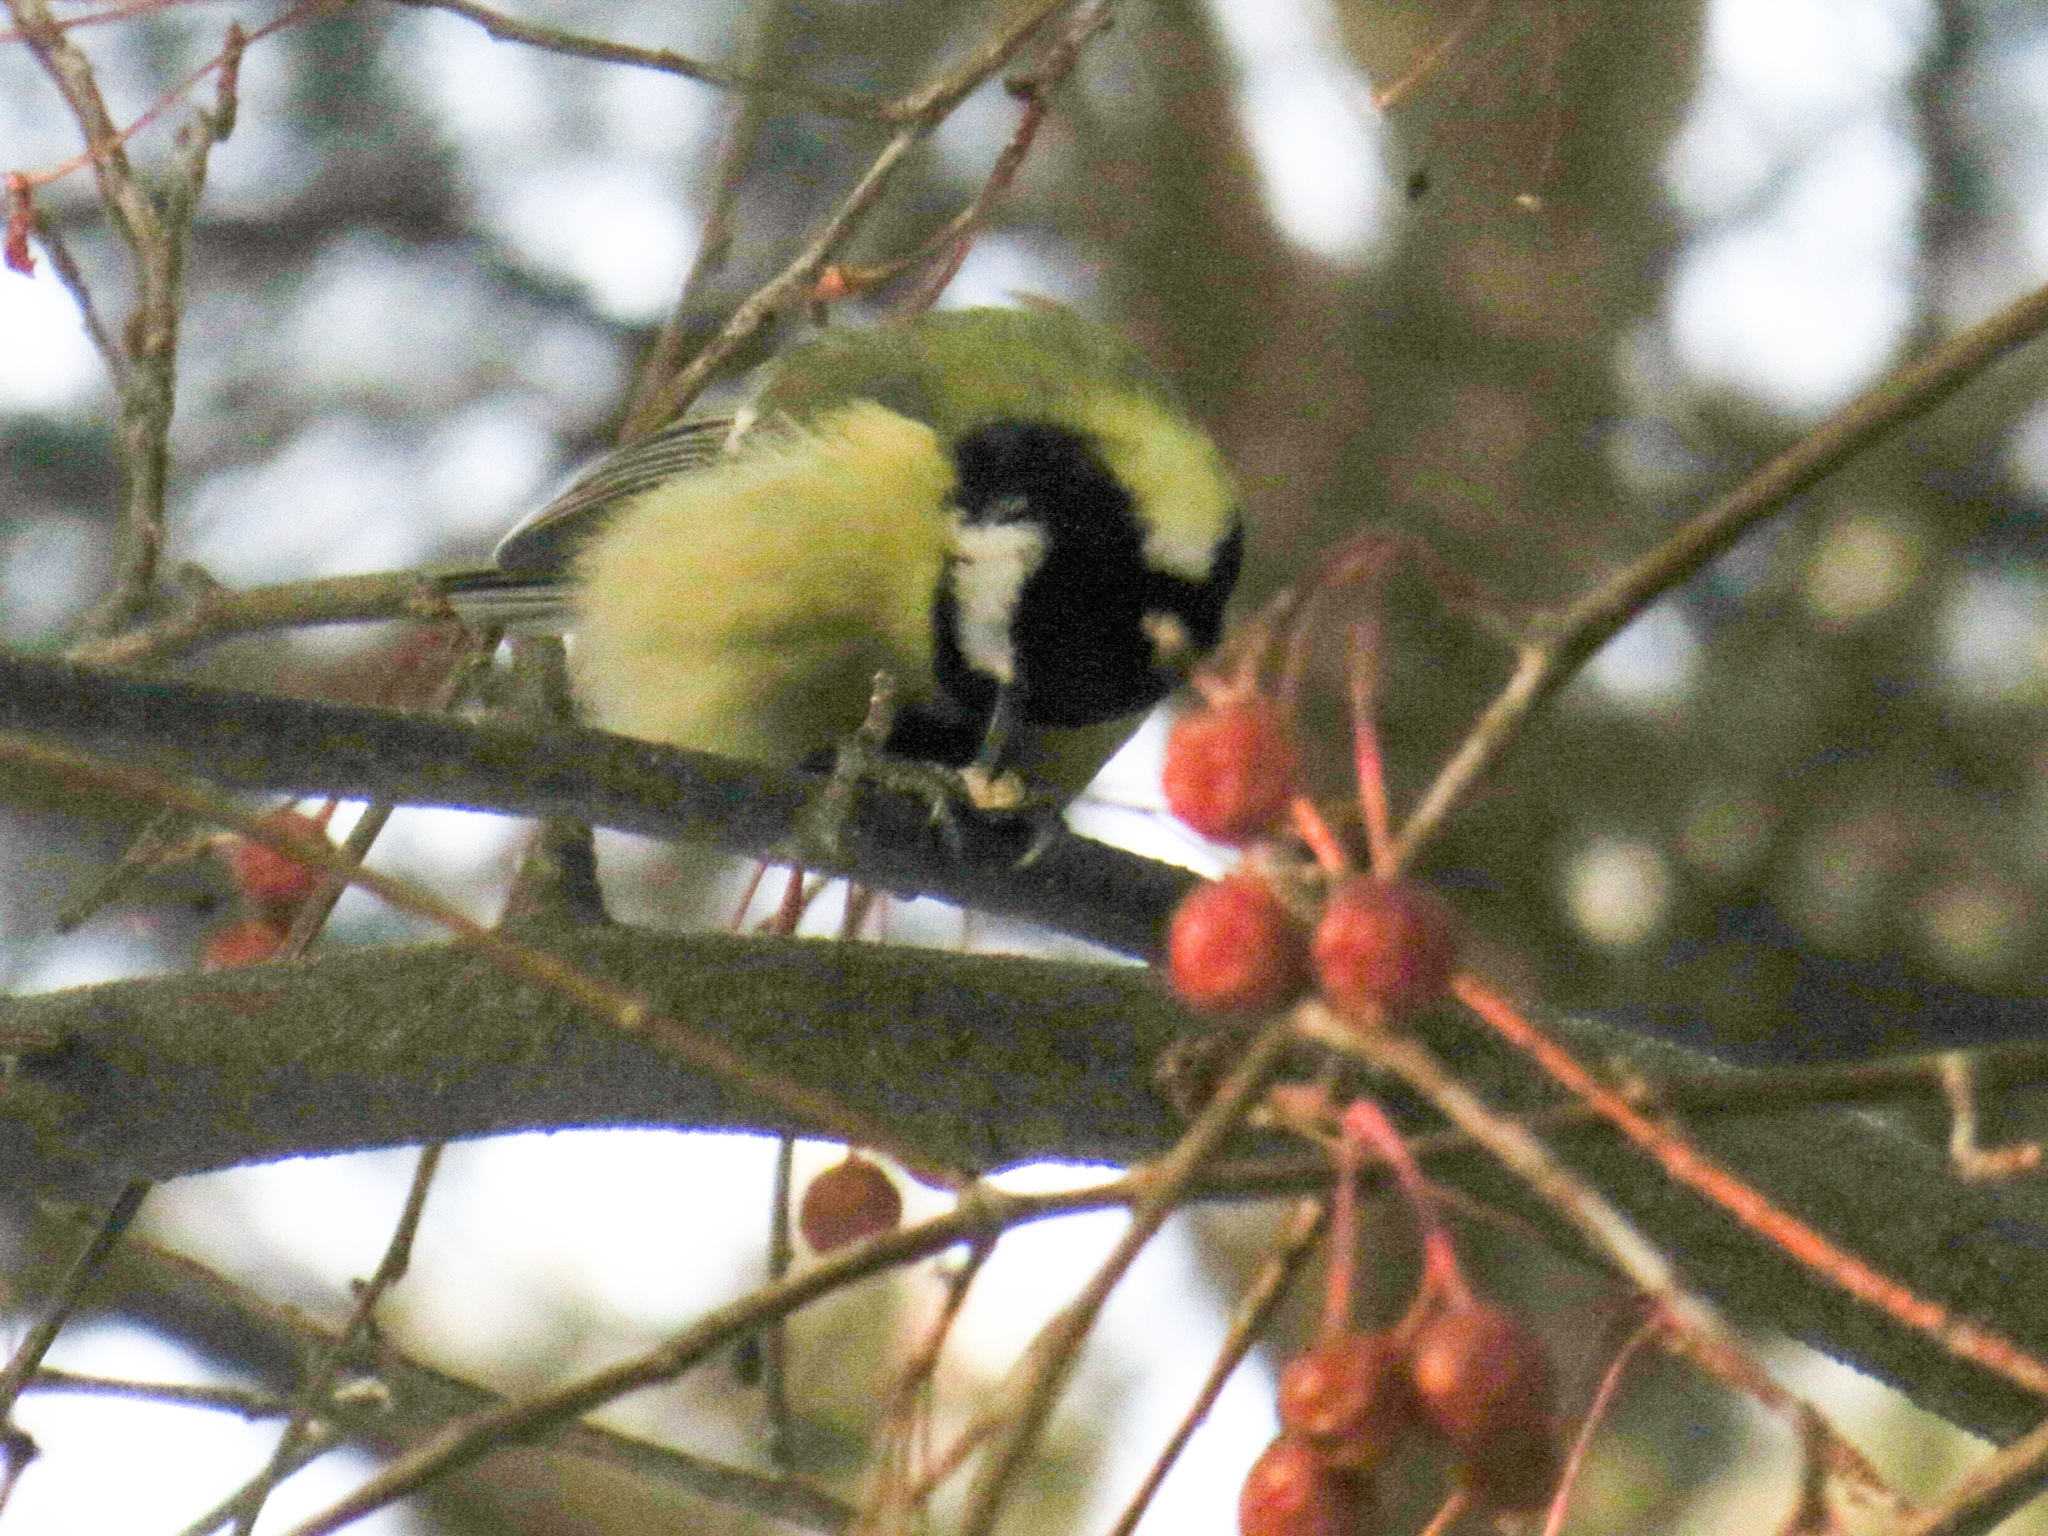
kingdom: Animalia
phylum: Chordata
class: Aves
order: Passeriformes
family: Paridae
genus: Parus
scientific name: Parus major
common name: Great tit
